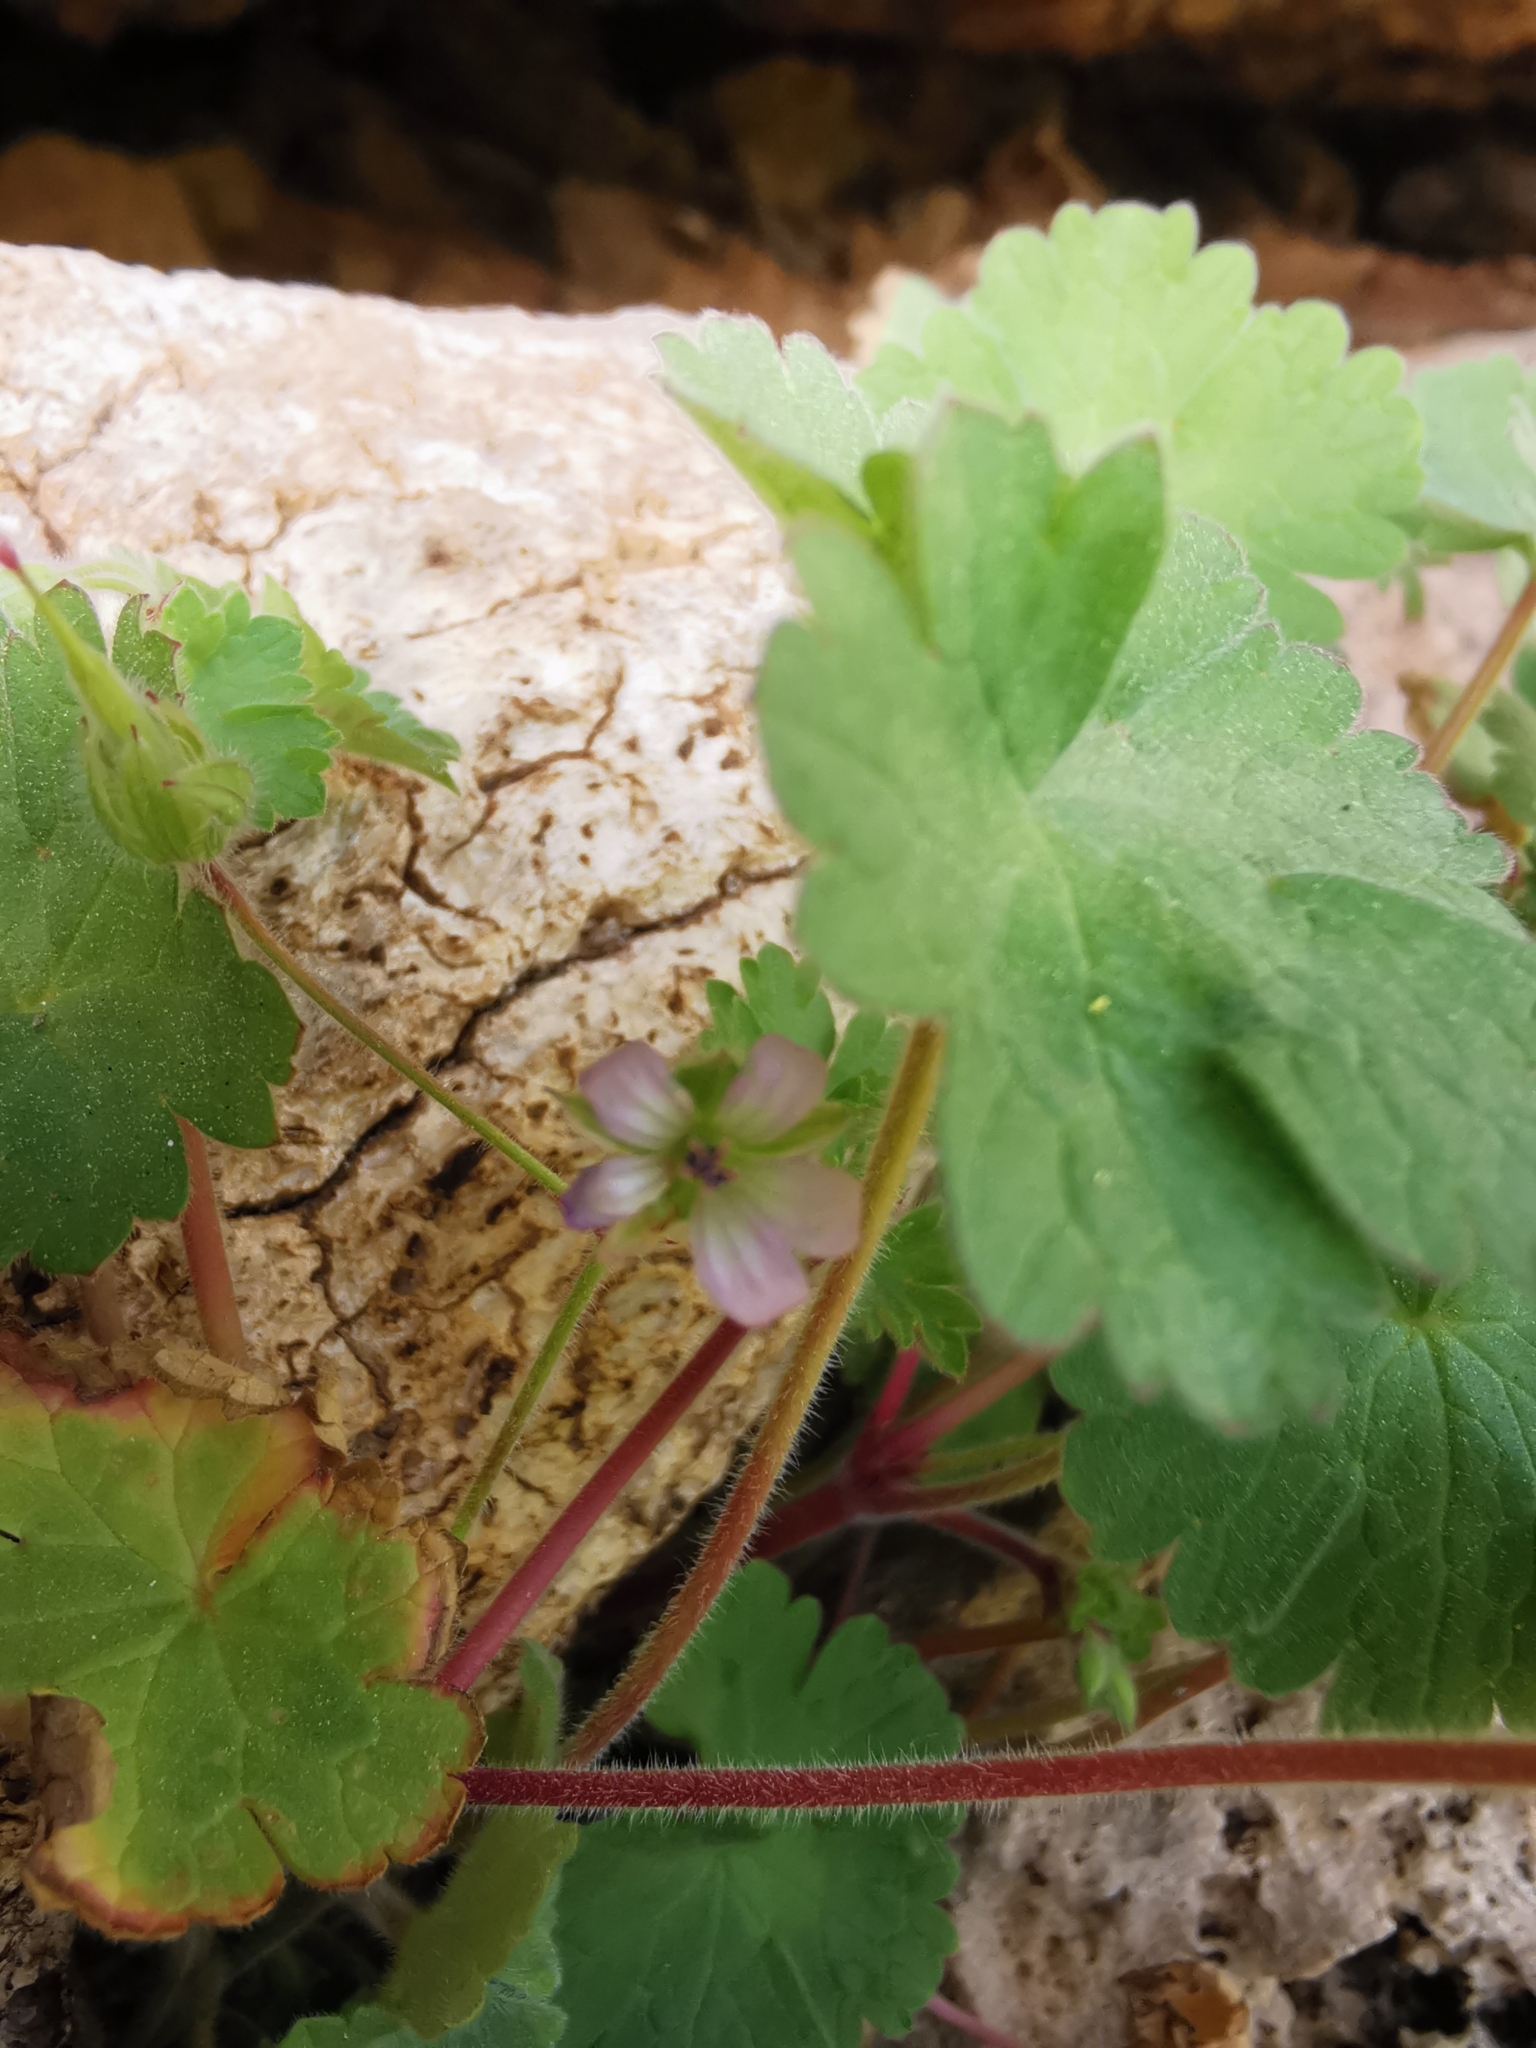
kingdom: Plantae
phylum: Tracheophyta
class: Magnoliopsida
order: Geraniales
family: Geraniaceae
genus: Geranium
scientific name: Geranium rotundifolium
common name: Round-leaved crane's-bill
